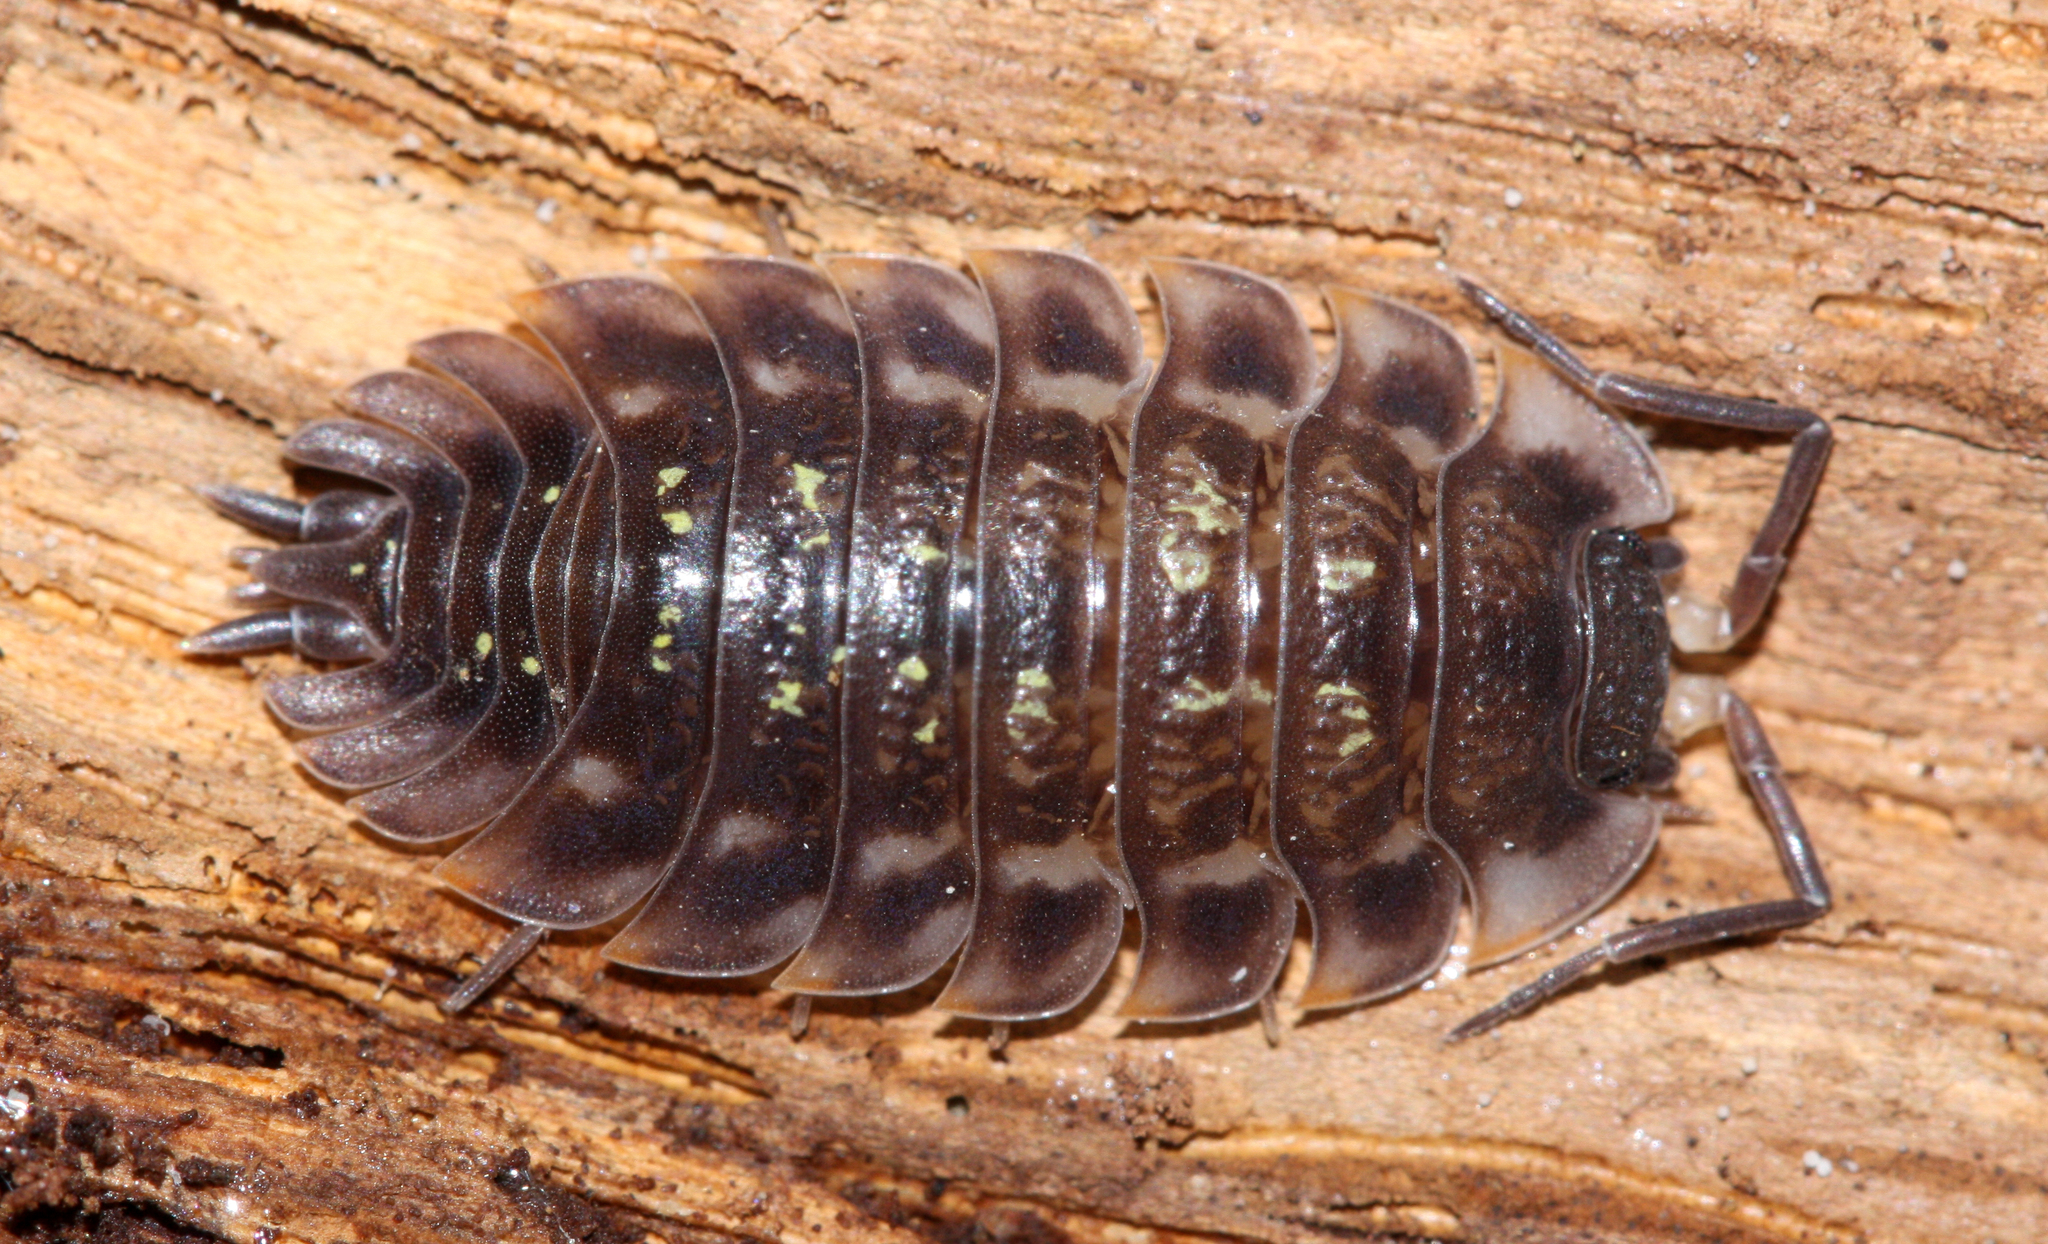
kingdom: Animalia
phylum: Arthropoda
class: Malacostraca
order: Isopoda
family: Oniscidae
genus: Oniscus
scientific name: Oniscus asellus
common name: Common shiny woodlouse
